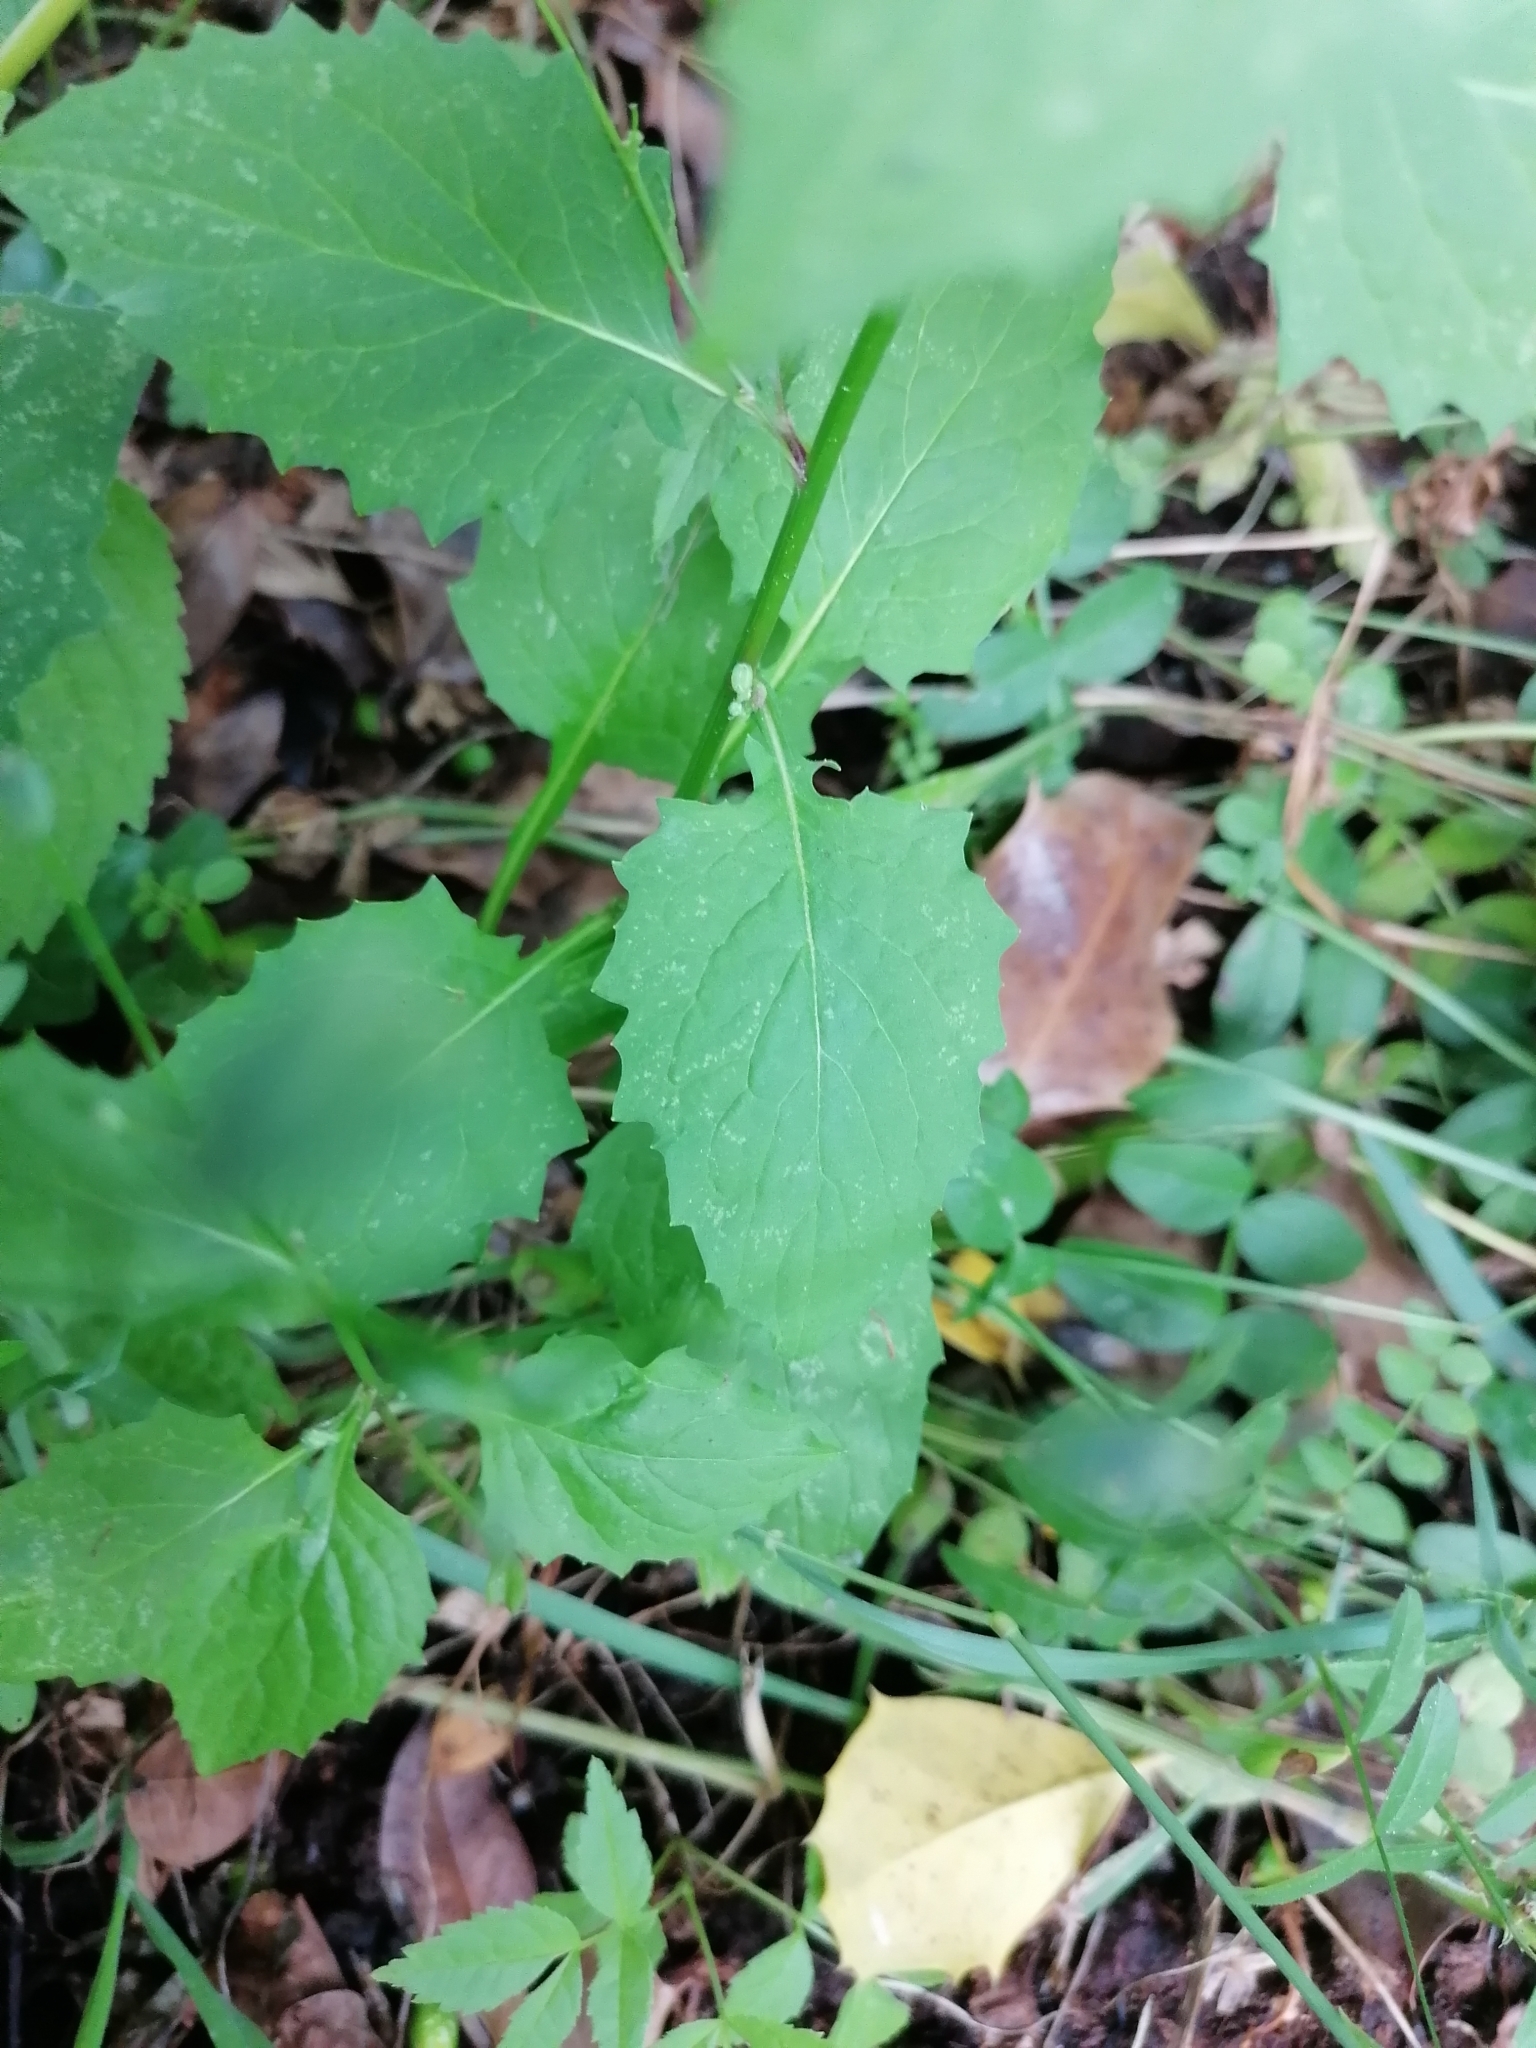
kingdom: Plantae
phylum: Tracheophyta
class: Magnoliopsida
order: Asterales
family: Asteraceae
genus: Lapsana
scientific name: Lapsana communis
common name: Nipplewort
